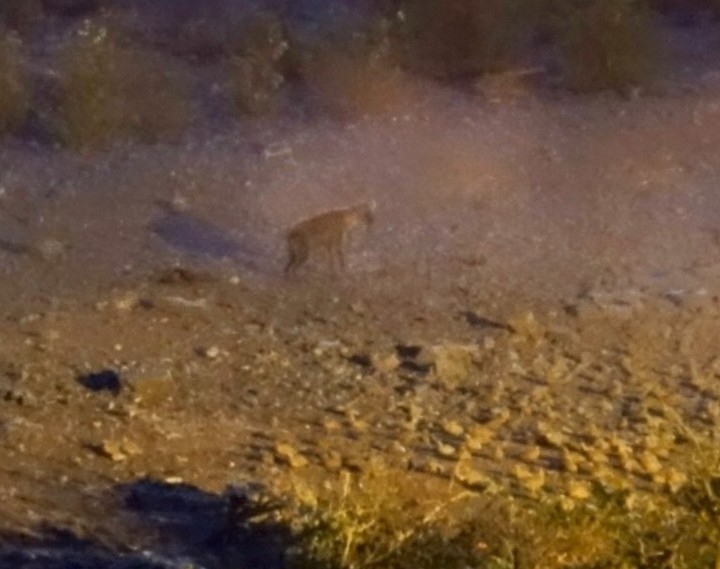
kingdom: Animalia
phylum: Chordata
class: Mammalia
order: Carnivora
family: Hyaenidae
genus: Crocuta
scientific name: Crocuta crocuta
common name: Spotted hyaena
